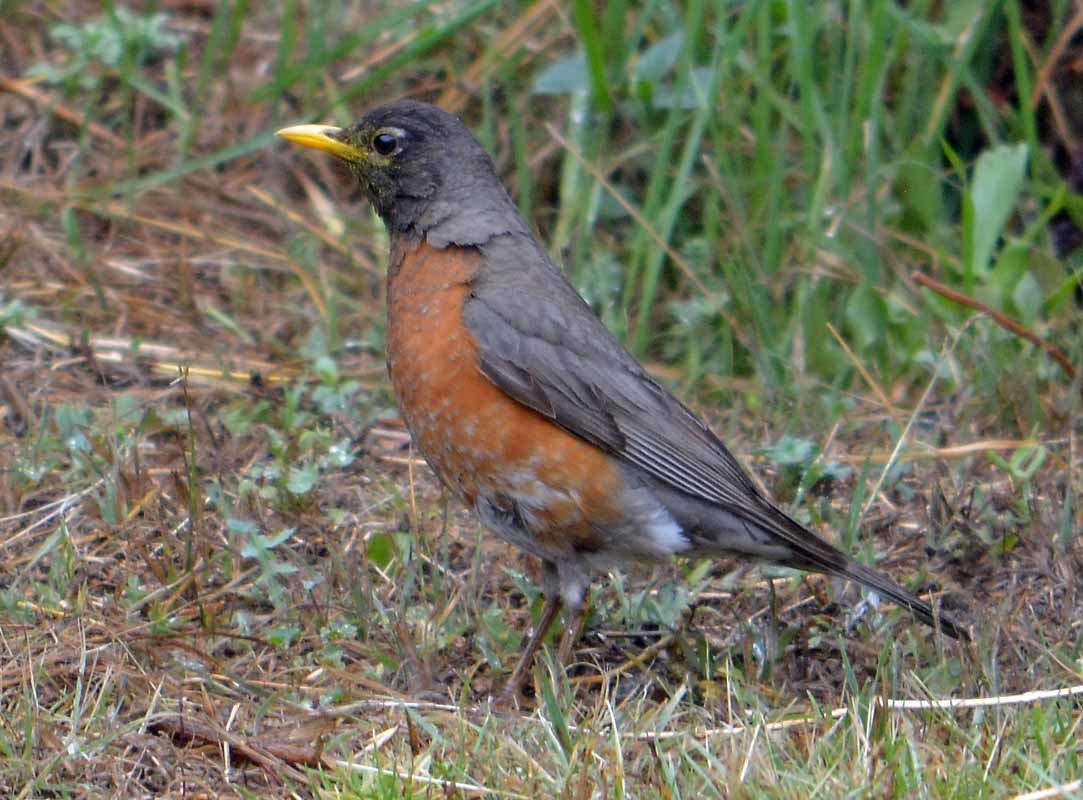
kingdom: Animalia
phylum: Chordata
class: Aves
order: Passeriformes
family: Turdidae
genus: Turdus
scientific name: Turdus migratorius
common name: American robin
